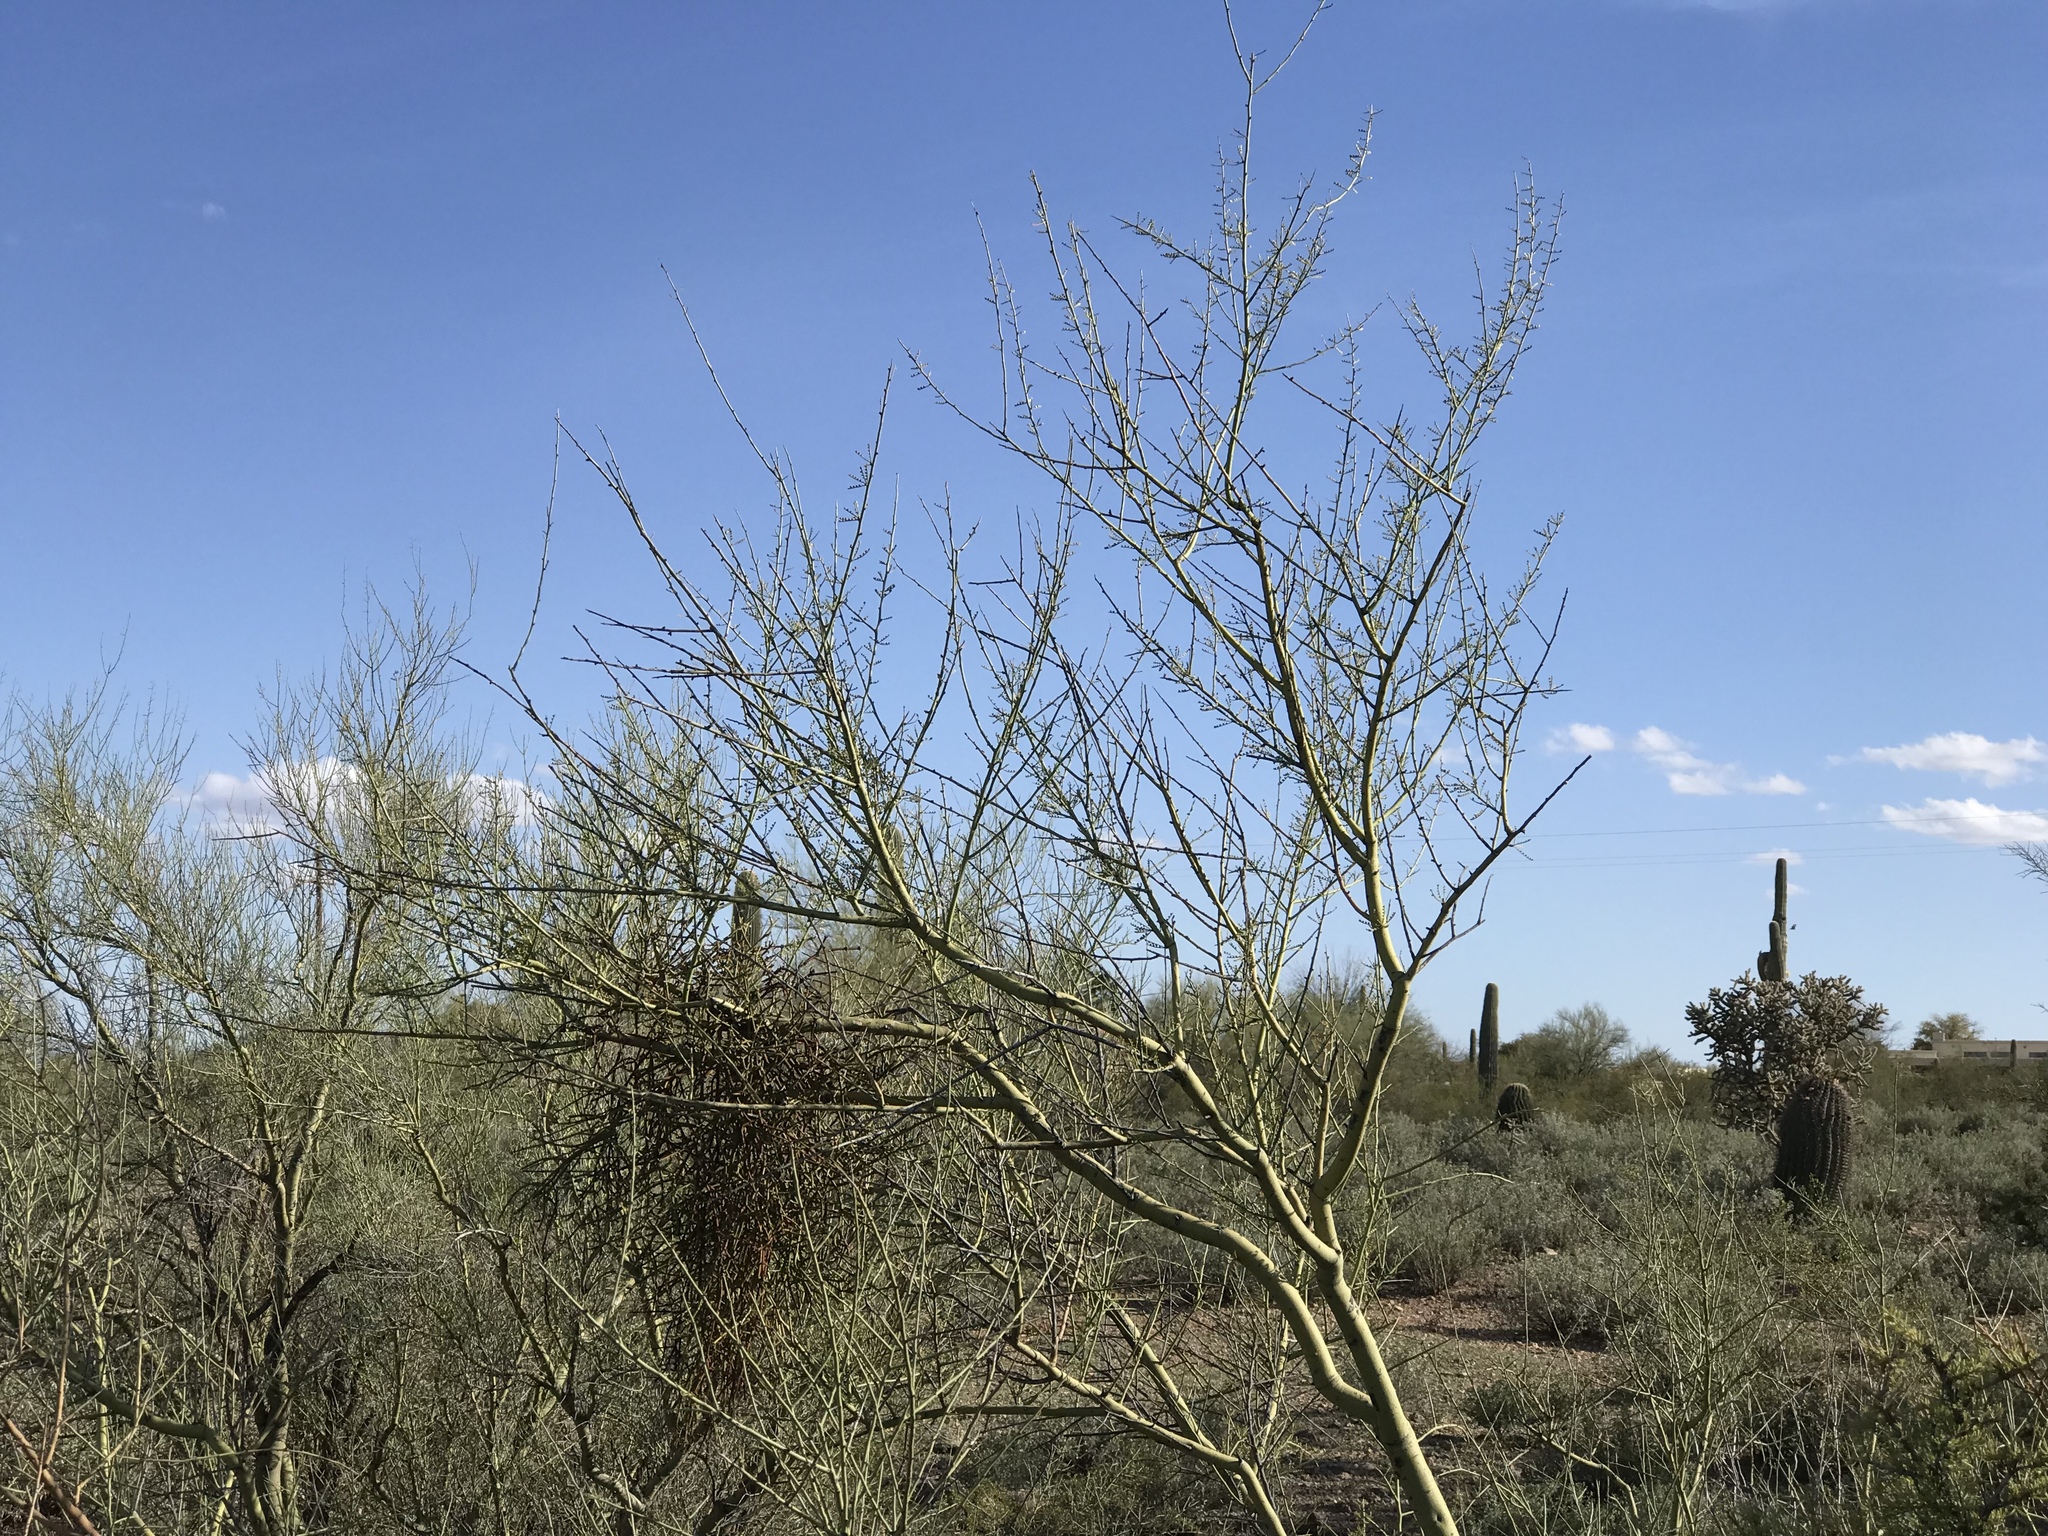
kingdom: Plantae
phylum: Tracheophyta
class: Magnoliopsida
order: Fabales
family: Fabaceae
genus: Parkinsonia
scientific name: Parkinsonia microphylla
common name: Yellow paloverde
